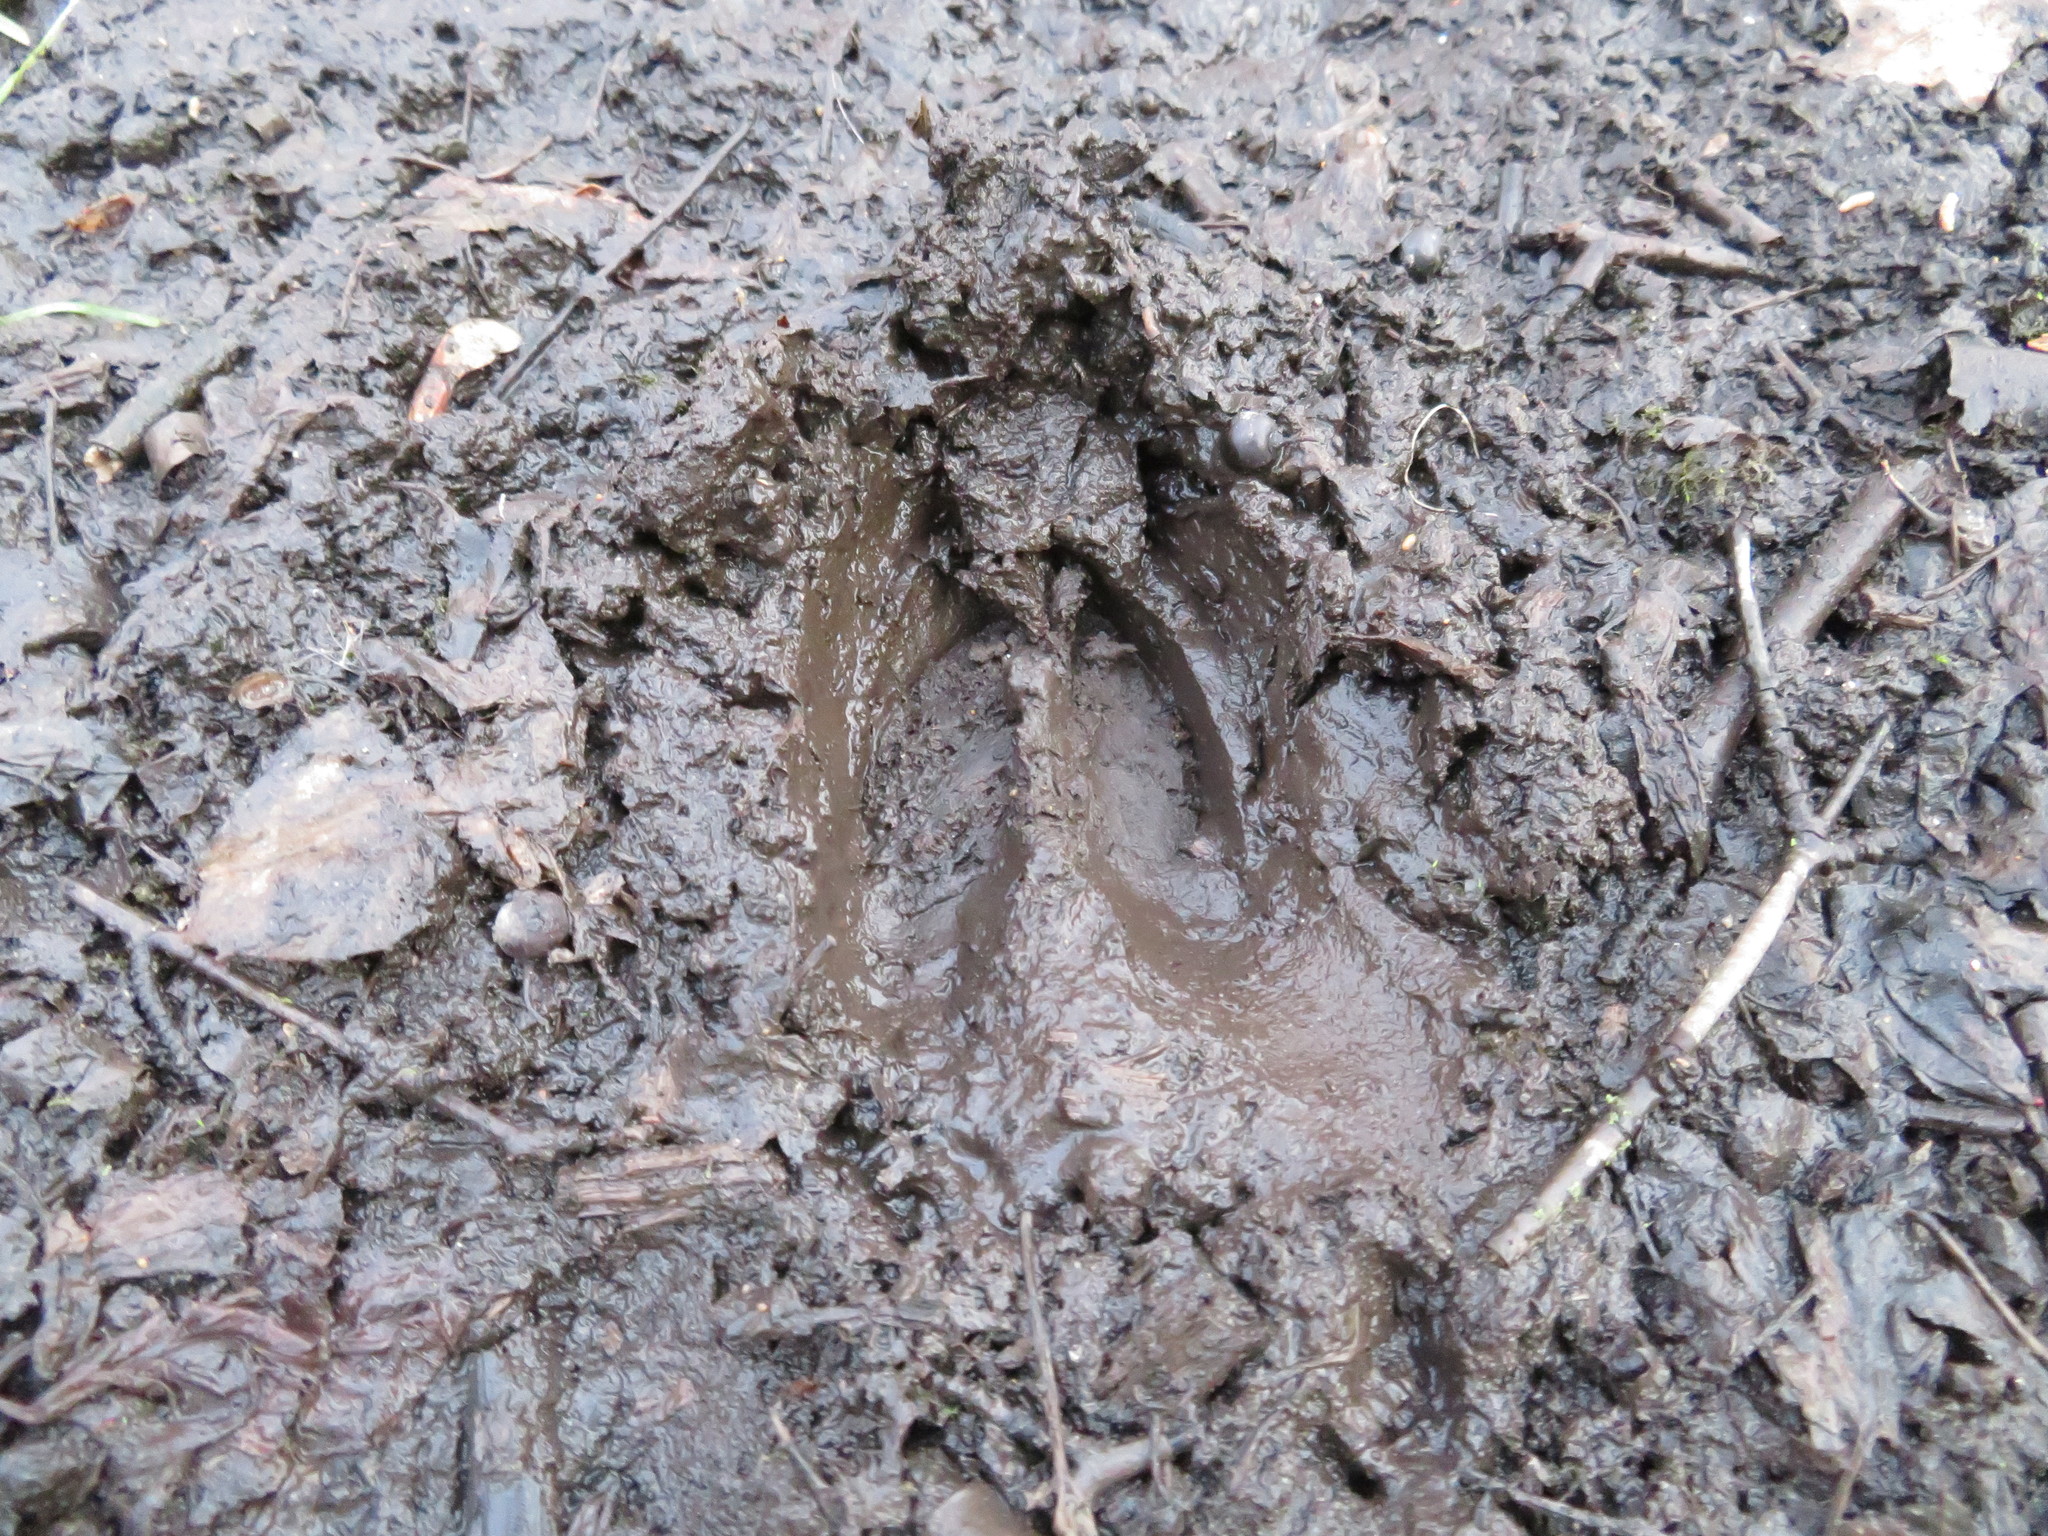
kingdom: Animalia
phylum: Chordata
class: Mammalia
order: Artiodactyla
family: Cervidae
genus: Odocoileus
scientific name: Odocoileus virginianus
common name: White-tailed deer
